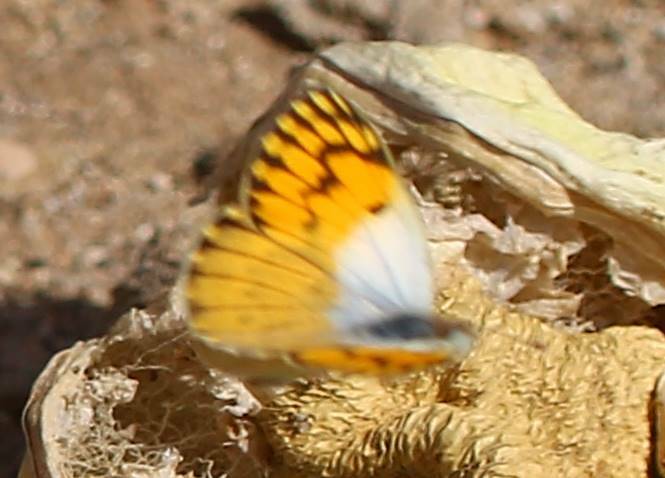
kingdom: Animalia
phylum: Arthropoda
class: Insecta
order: Lepidoptera
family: Pieridae
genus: Colotis
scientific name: Colotis chrysonome
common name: Golden arab
